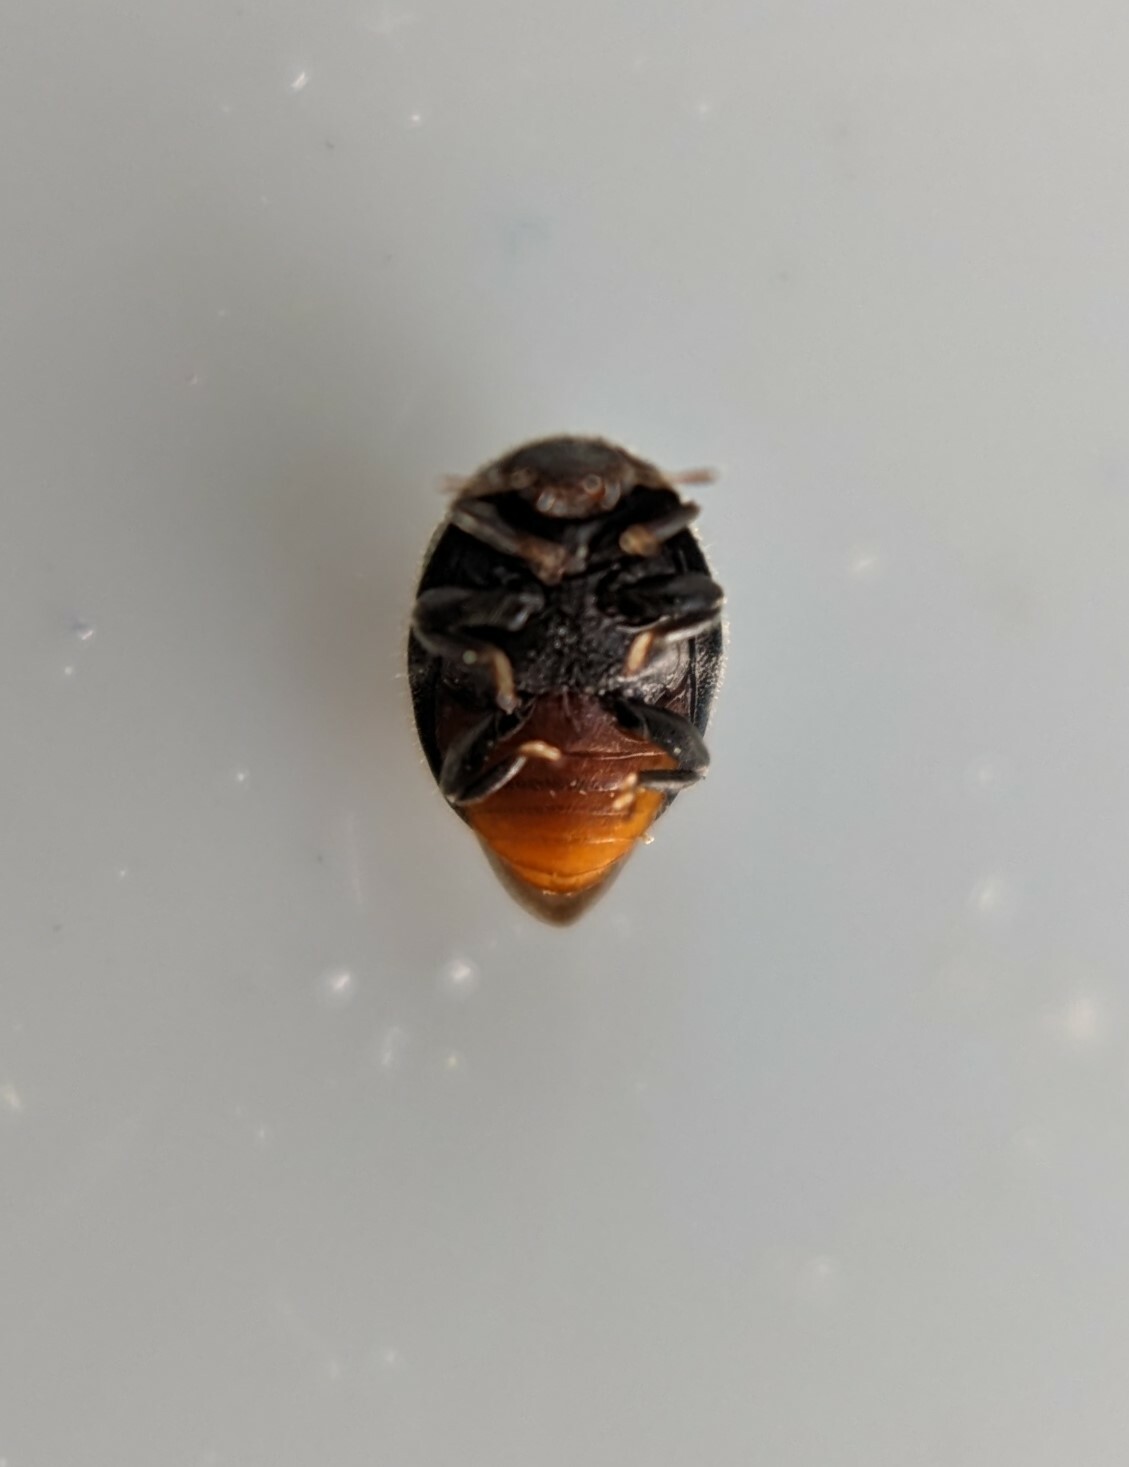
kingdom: Animalia
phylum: Arthropoda
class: Insecta
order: Coleoptera
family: Coccinellidae
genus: Rhyzobius
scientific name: Rhyzobius forestieri
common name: Ladybird beetle
